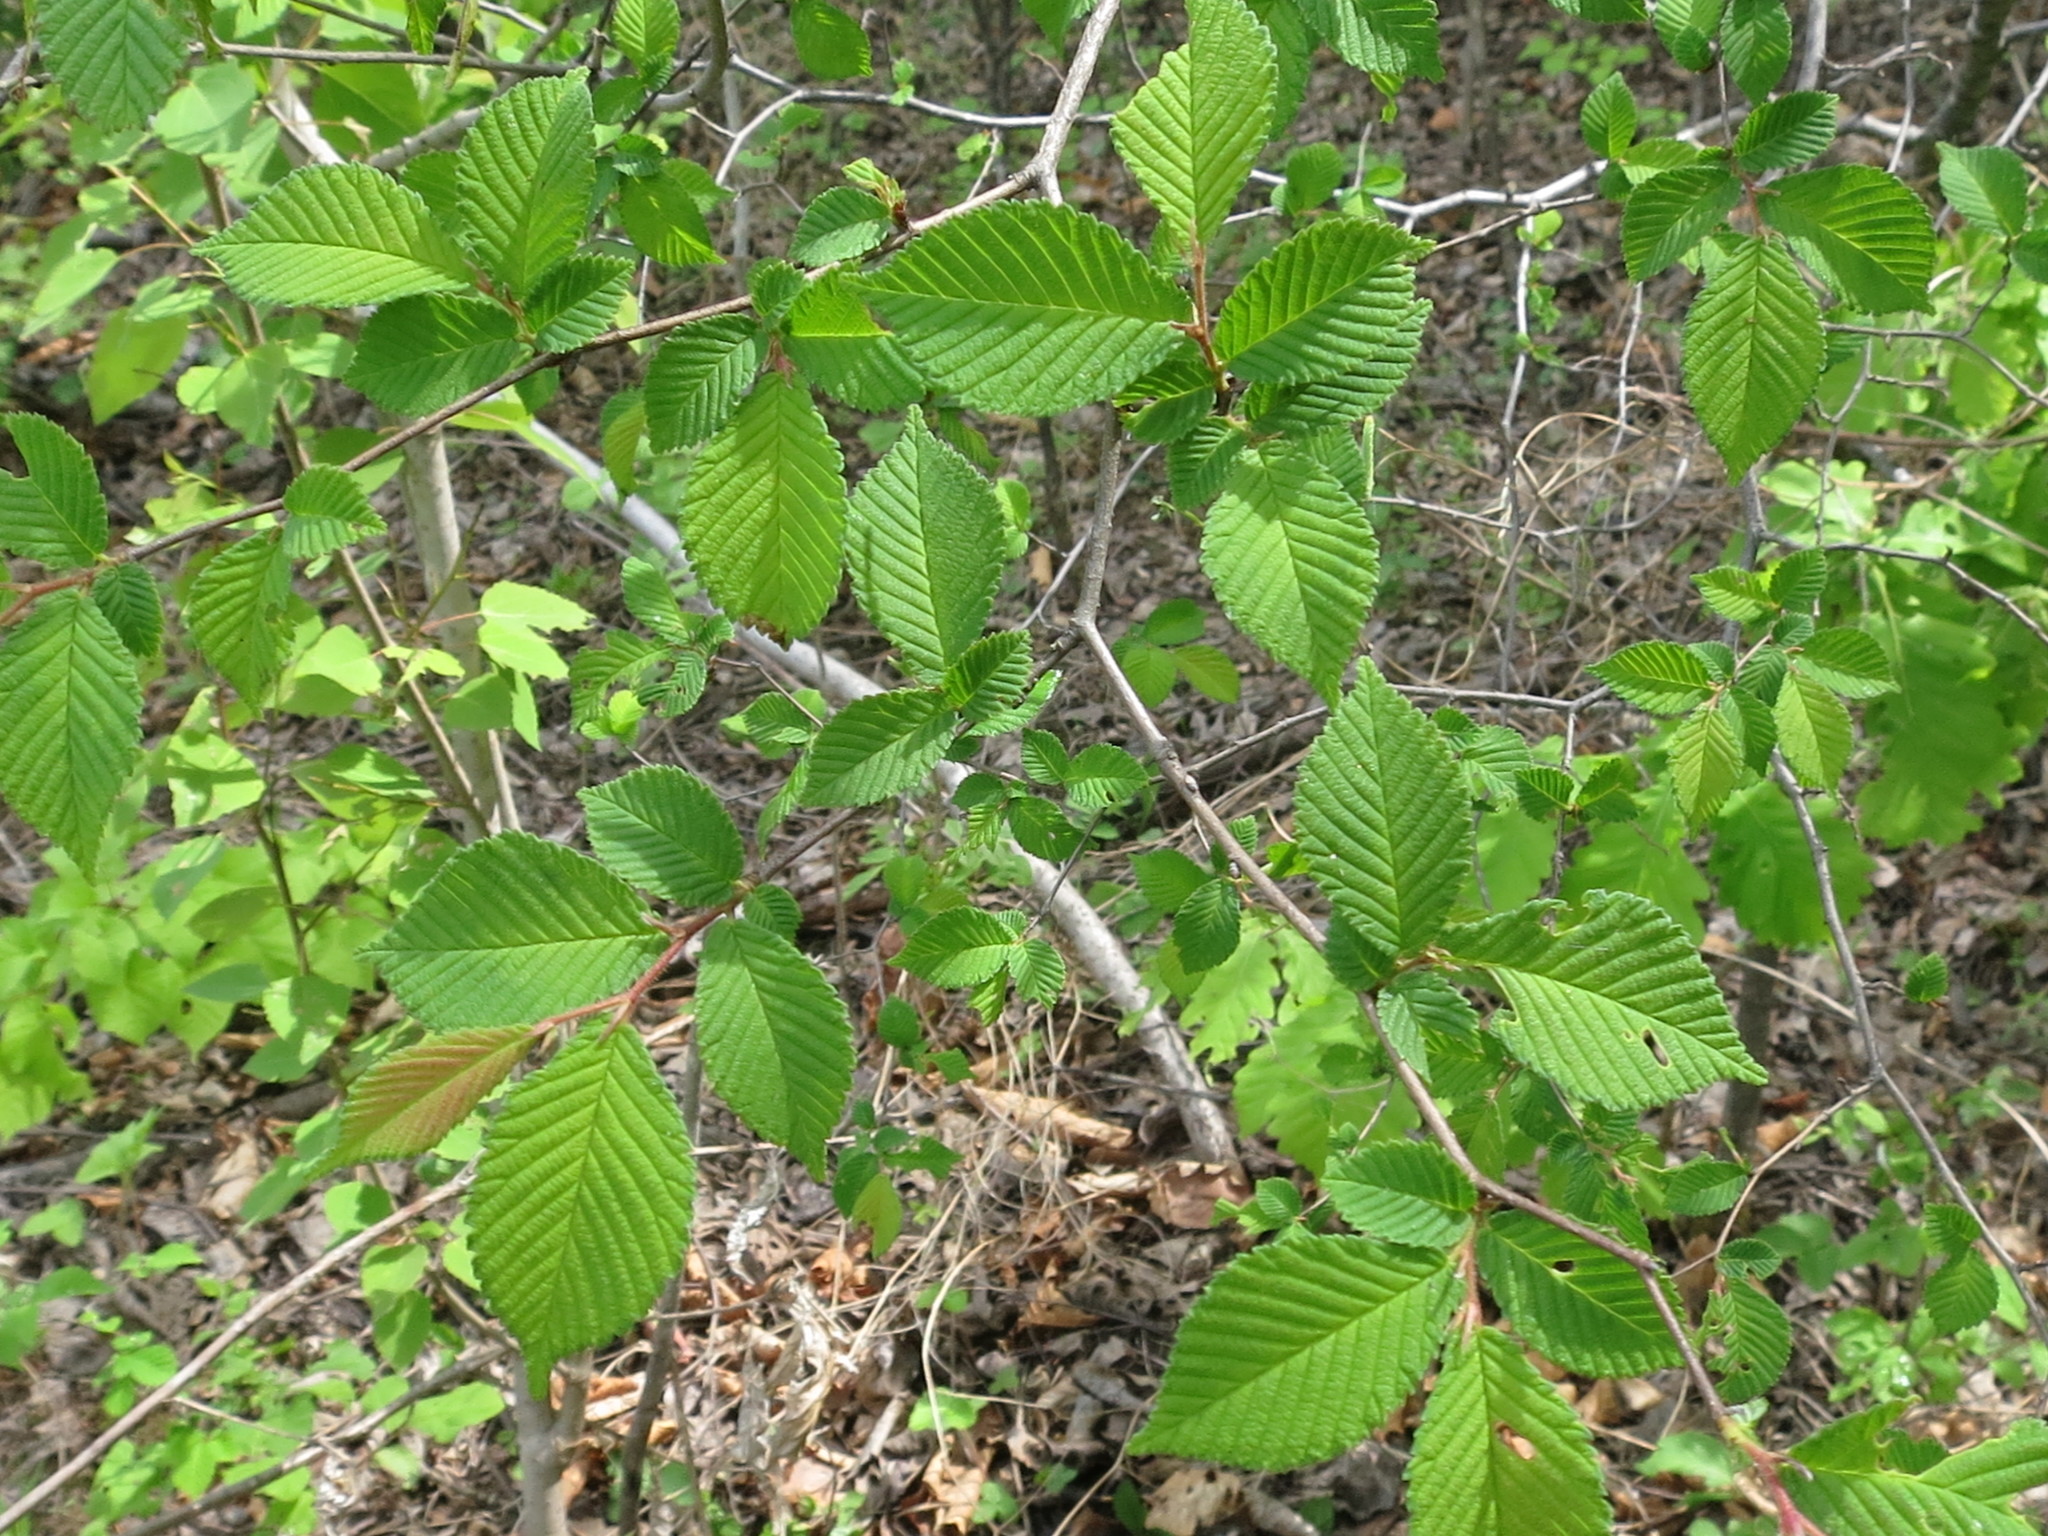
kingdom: Plantae
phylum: Tracheophyta
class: Magnoliopsida
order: Rosales
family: Ulmaceae
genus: Ulmus
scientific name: Ulmus davidiana
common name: Japanese elm
